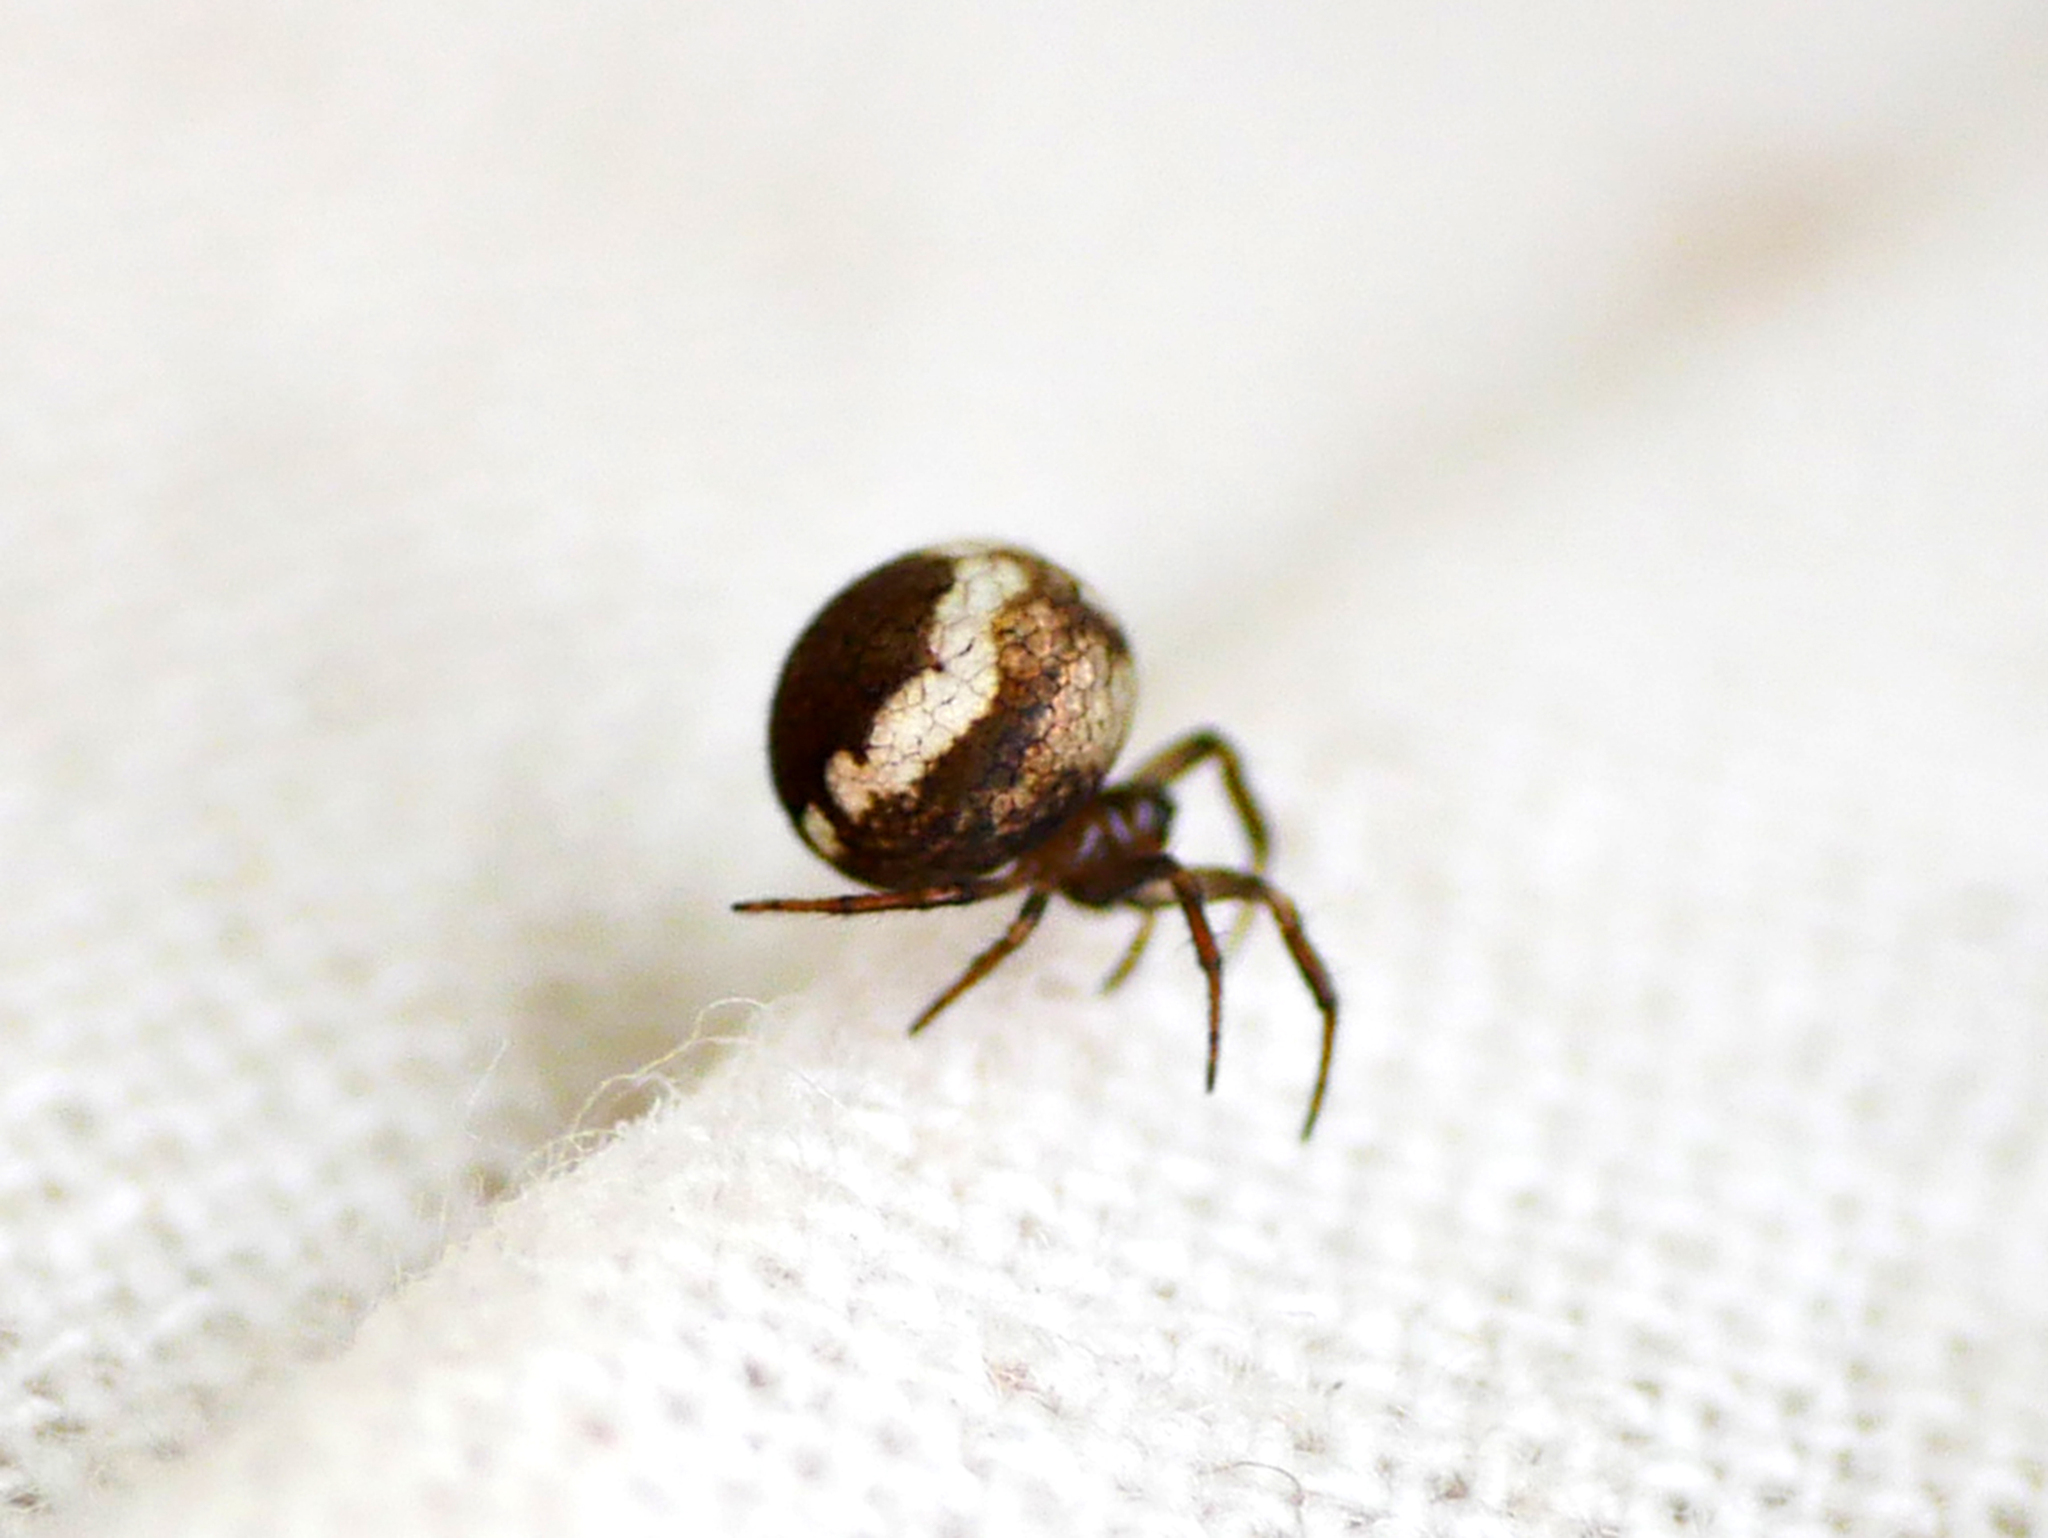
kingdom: Animalia
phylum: Arthropoda
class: Arachnida
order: Araneae
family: Theridiosomatidae
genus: Theridiosoma
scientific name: Theridiosoma gemmosum
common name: Ray spider
